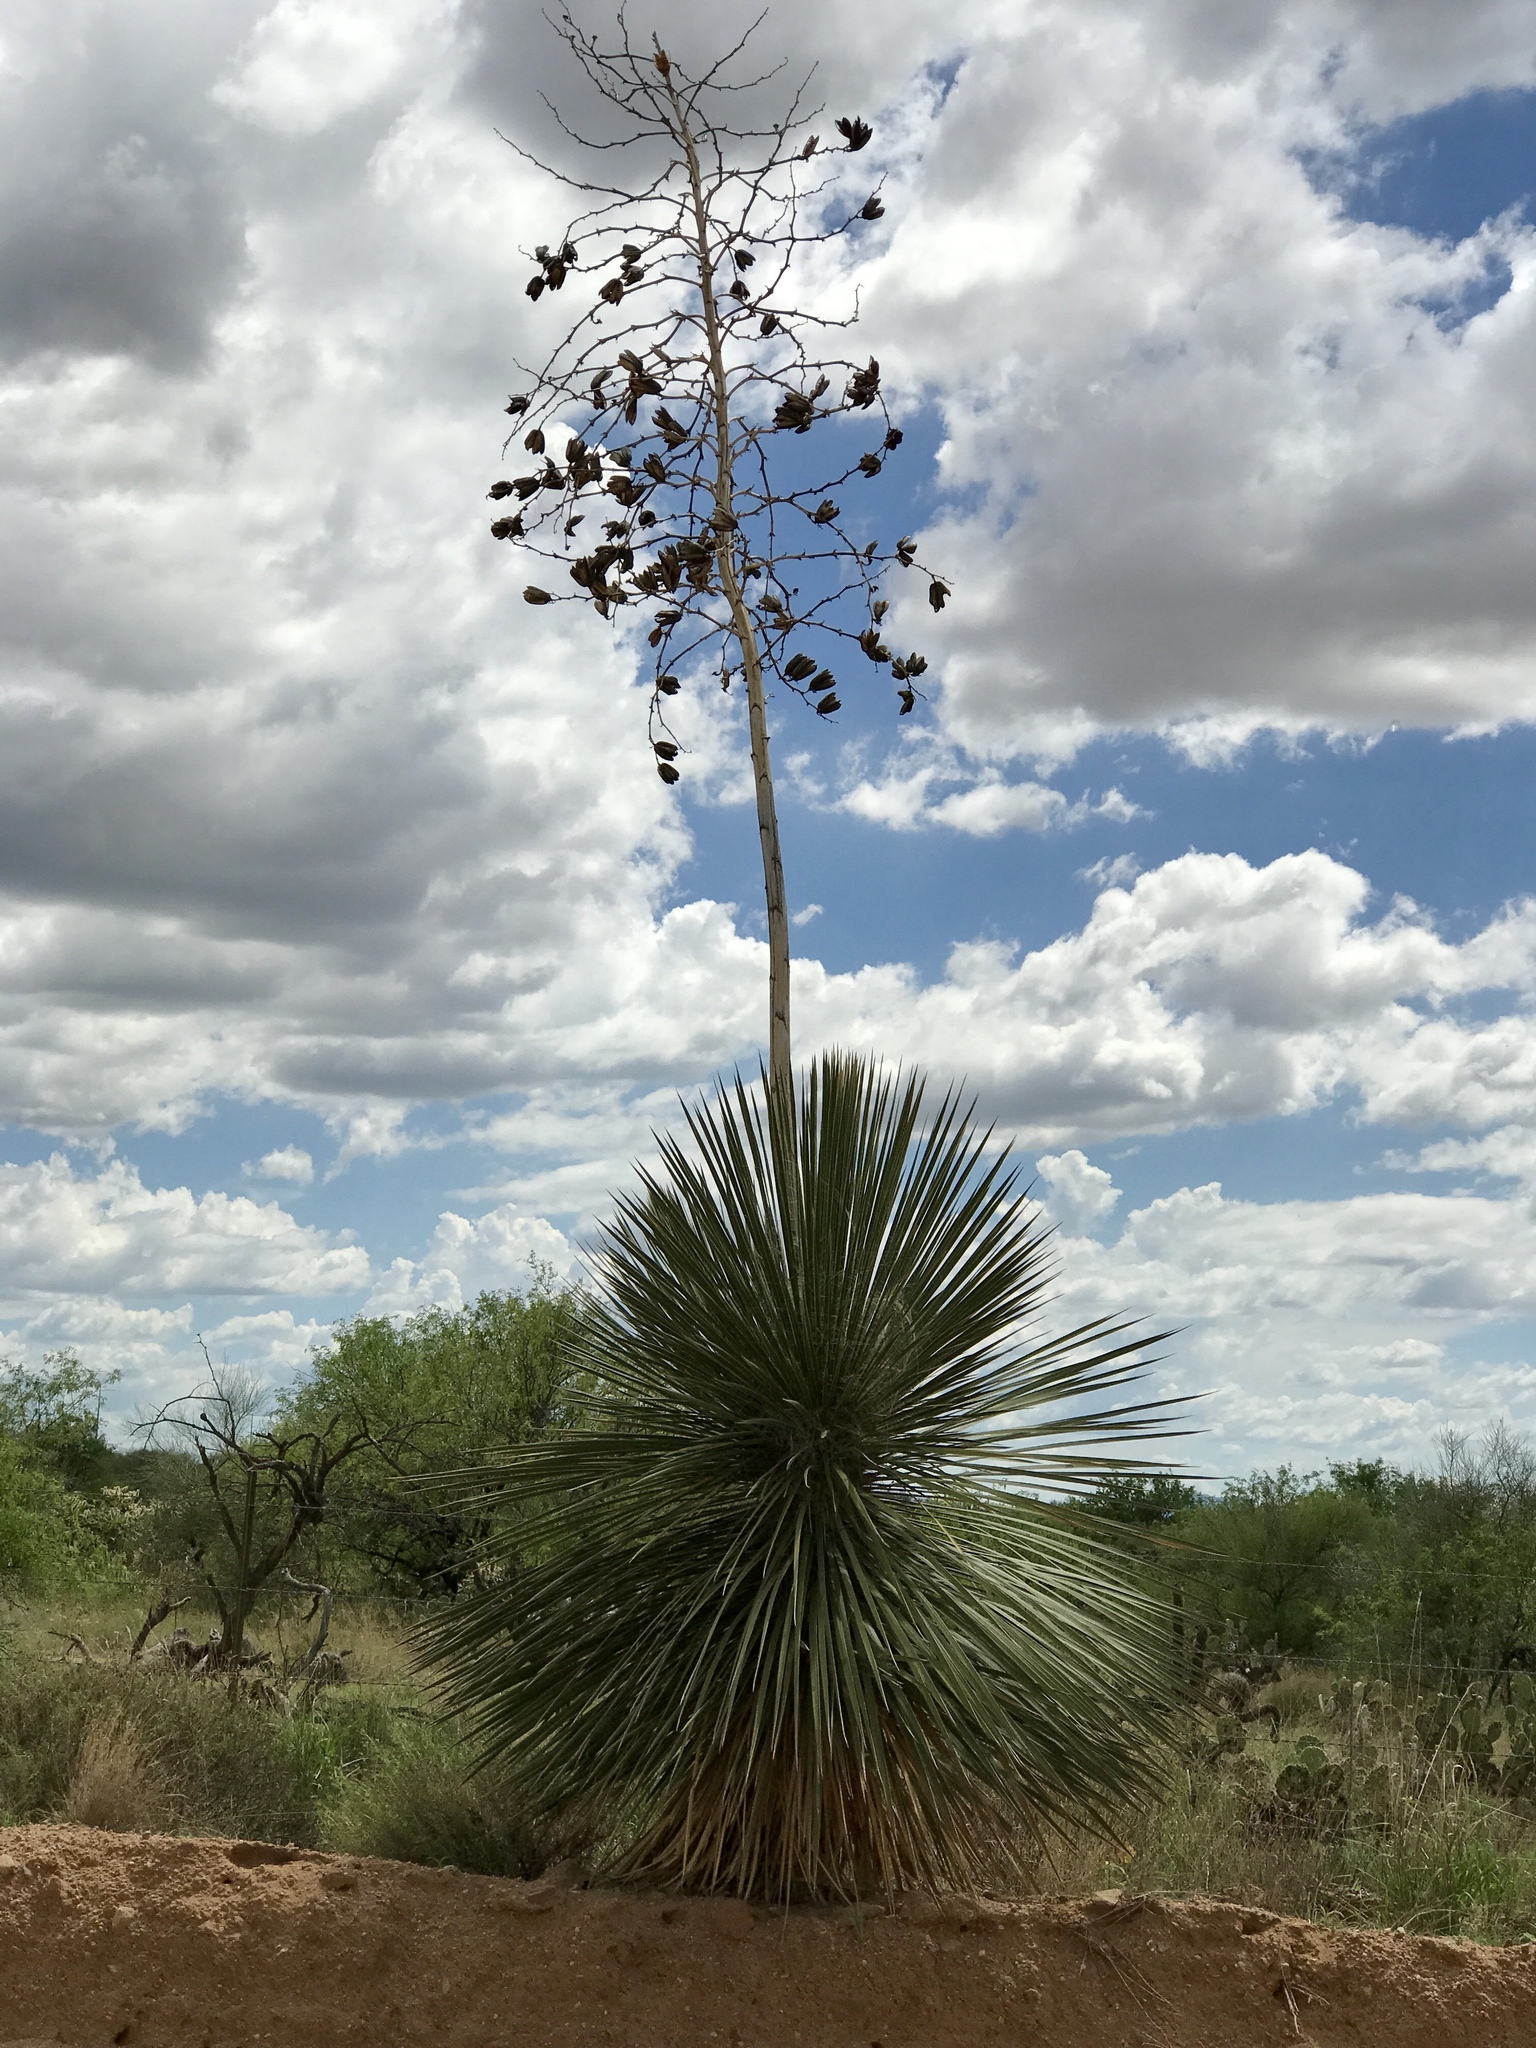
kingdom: Plantae
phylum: Tracheophyta
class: Liliopsida
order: Asparagales
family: Asparagaceae
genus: Yucca
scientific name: Yucca elata
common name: Palmella
